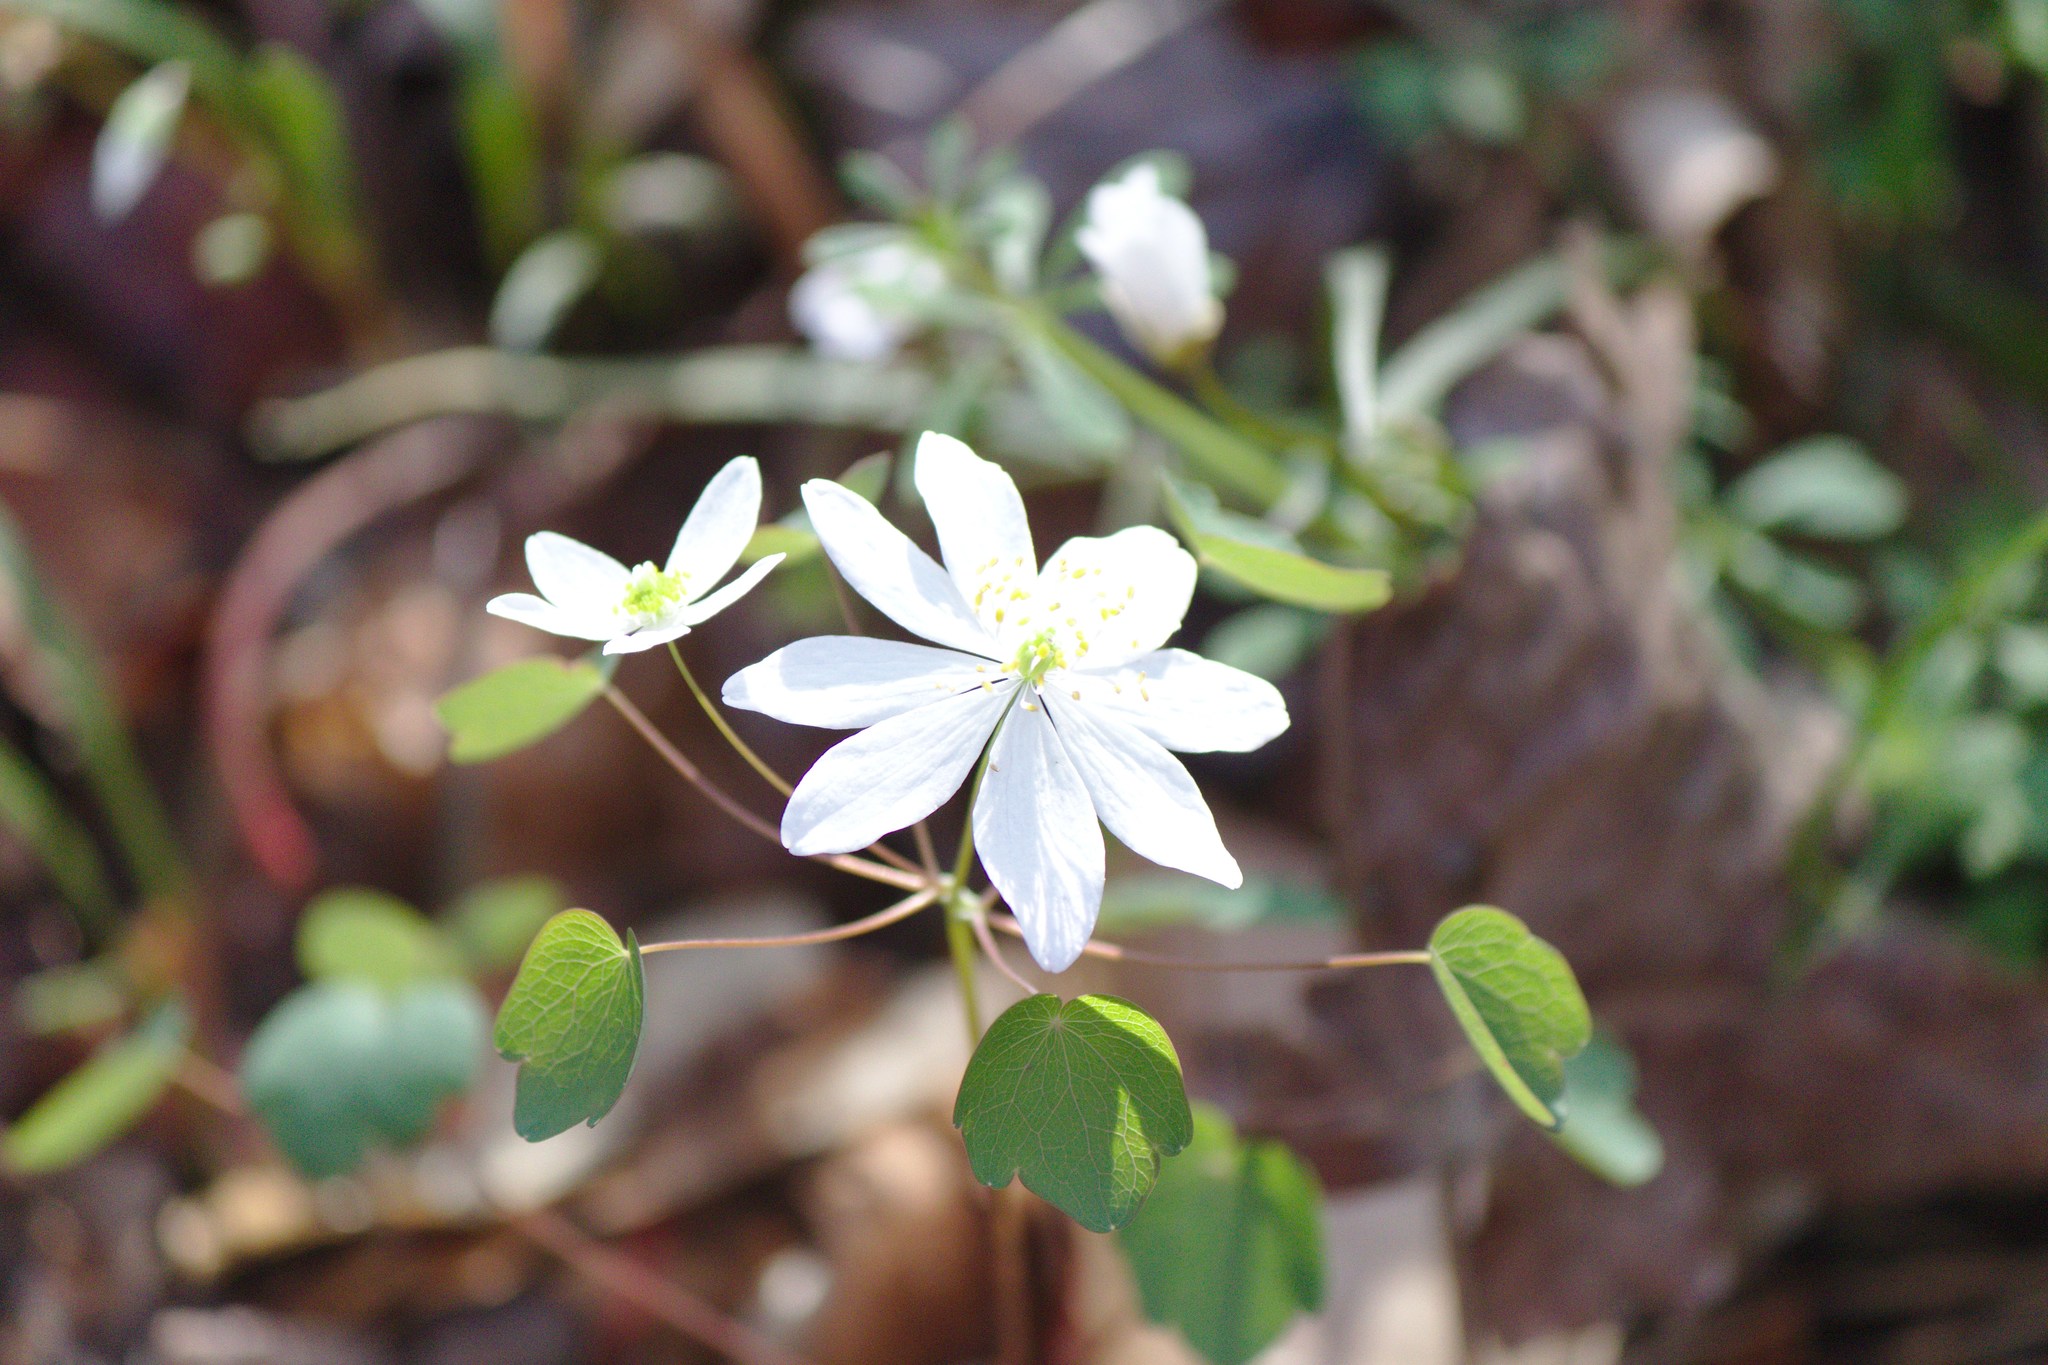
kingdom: Plantae
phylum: Tracheophyta
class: Magnoliopsida
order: Ranunculales
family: Ranunculaceae
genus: Thalictrum
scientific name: Thalictrum thalictroides
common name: Rue-anemone
